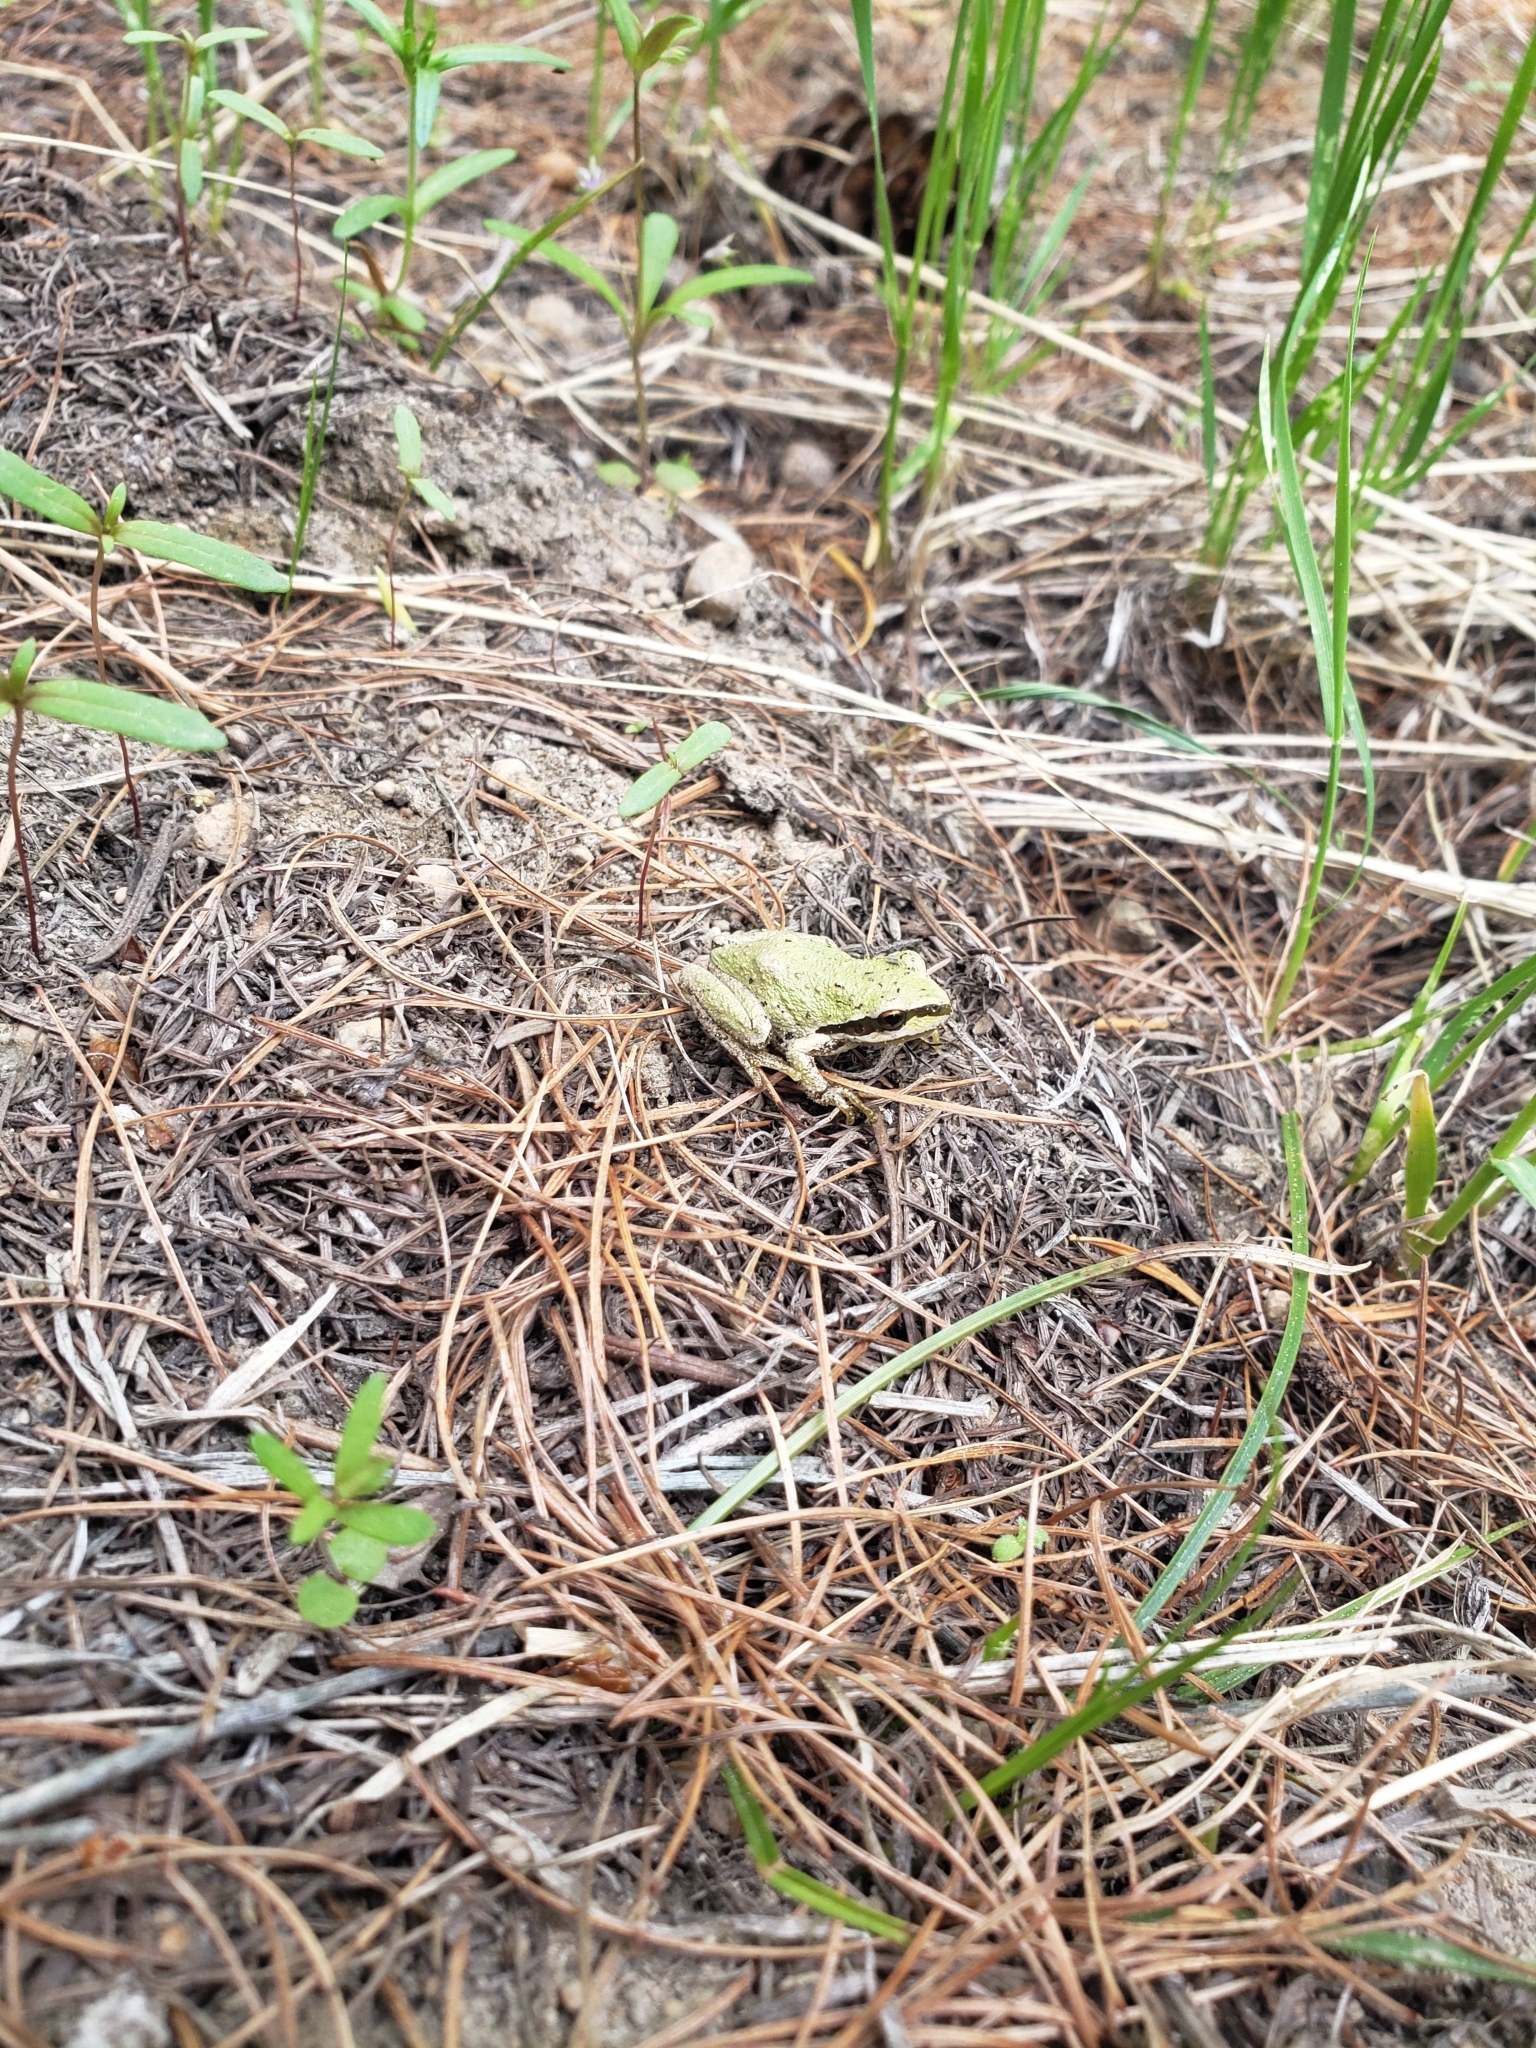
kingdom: Animalia
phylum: Chordata
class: Amphibia
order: Anura
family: Hylidae
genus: Pseudacris
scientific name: Pseudacris regilla
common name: Pacific chorus frog
